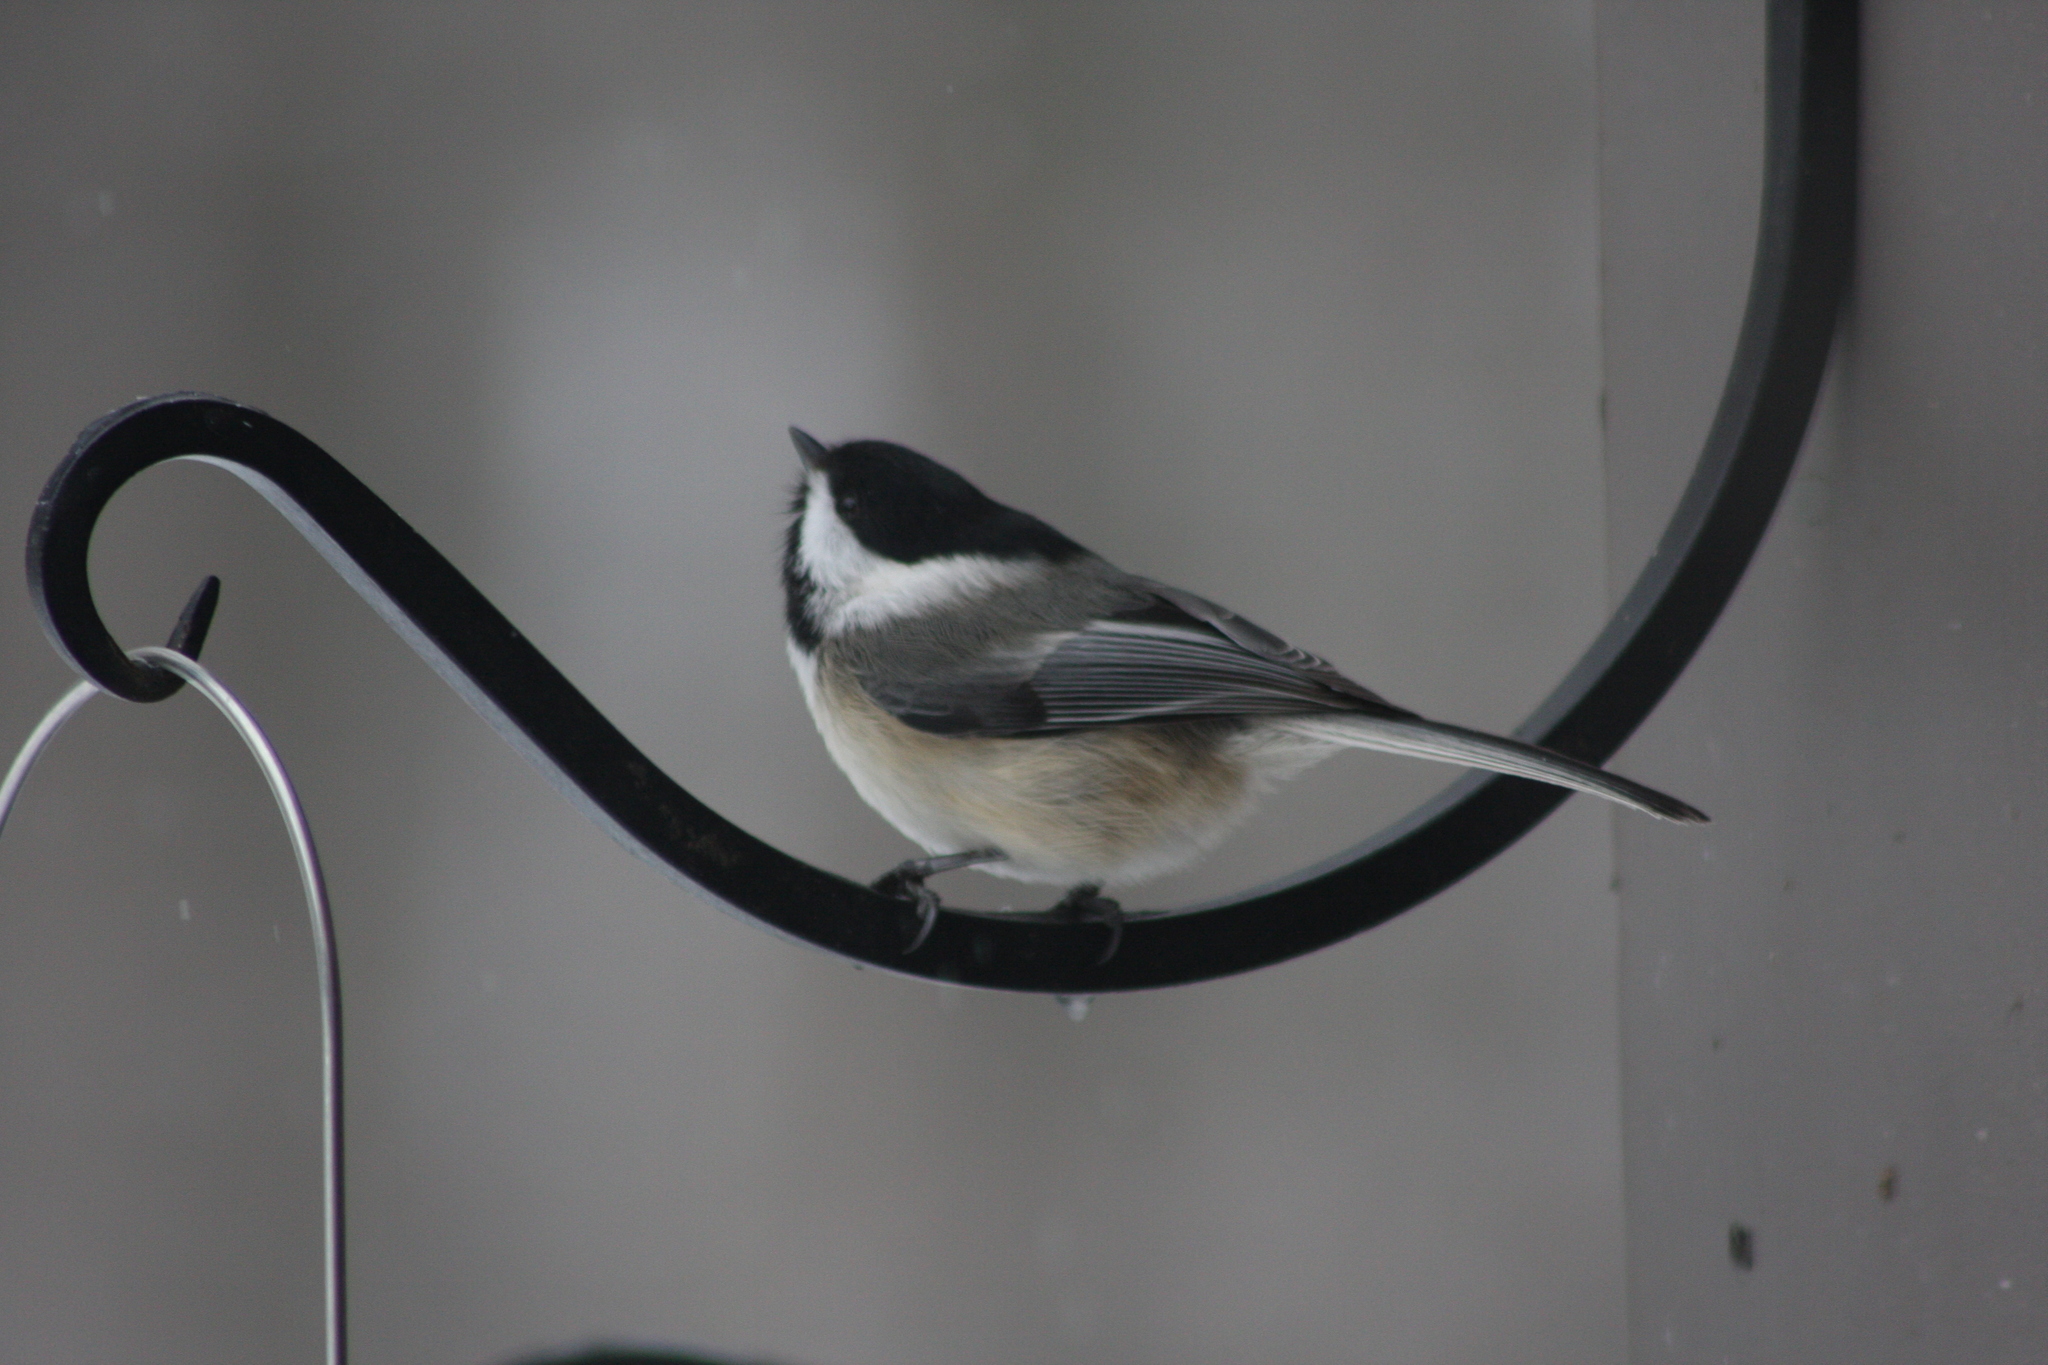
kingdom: Animalia
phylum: Chordata
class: Aves
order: Passeriformes
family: Paridae
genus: Poecile
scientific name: Poecile atricapillus
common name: Black-capped chickadee
